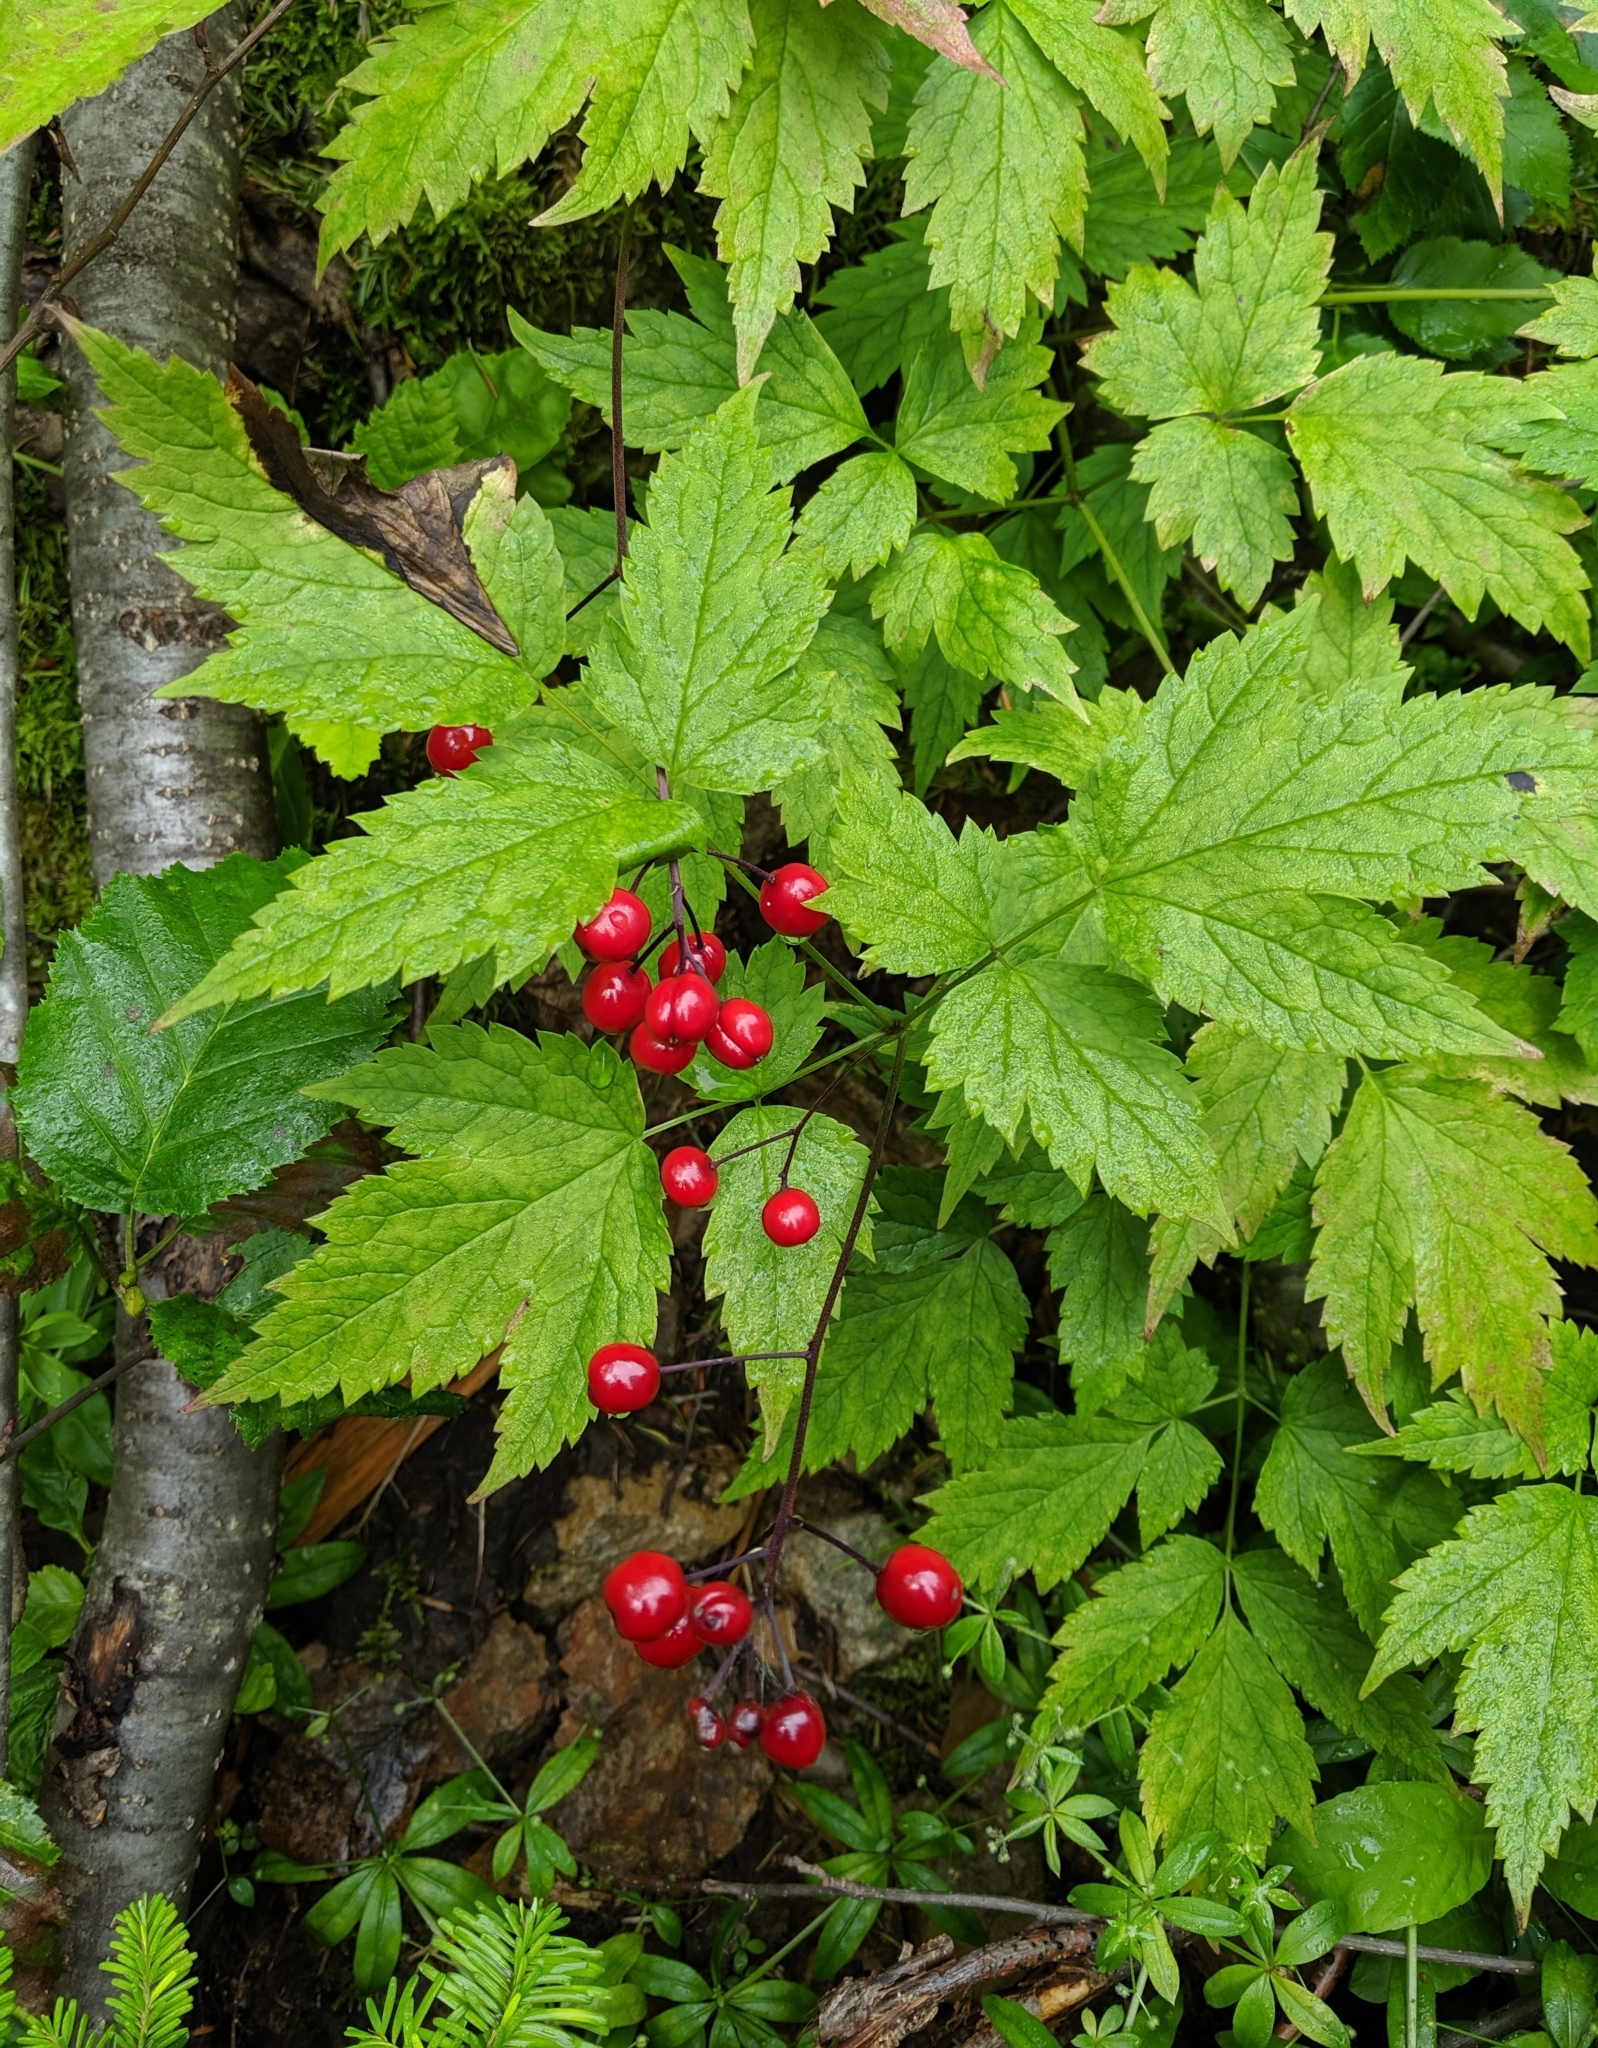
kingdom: Plantae
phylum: Tracheophyta
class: Magnoliopsida
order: Ranunculales
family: Ranunculaceae
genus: Actaea
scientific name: Actaea rubra
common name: Red baneberry
